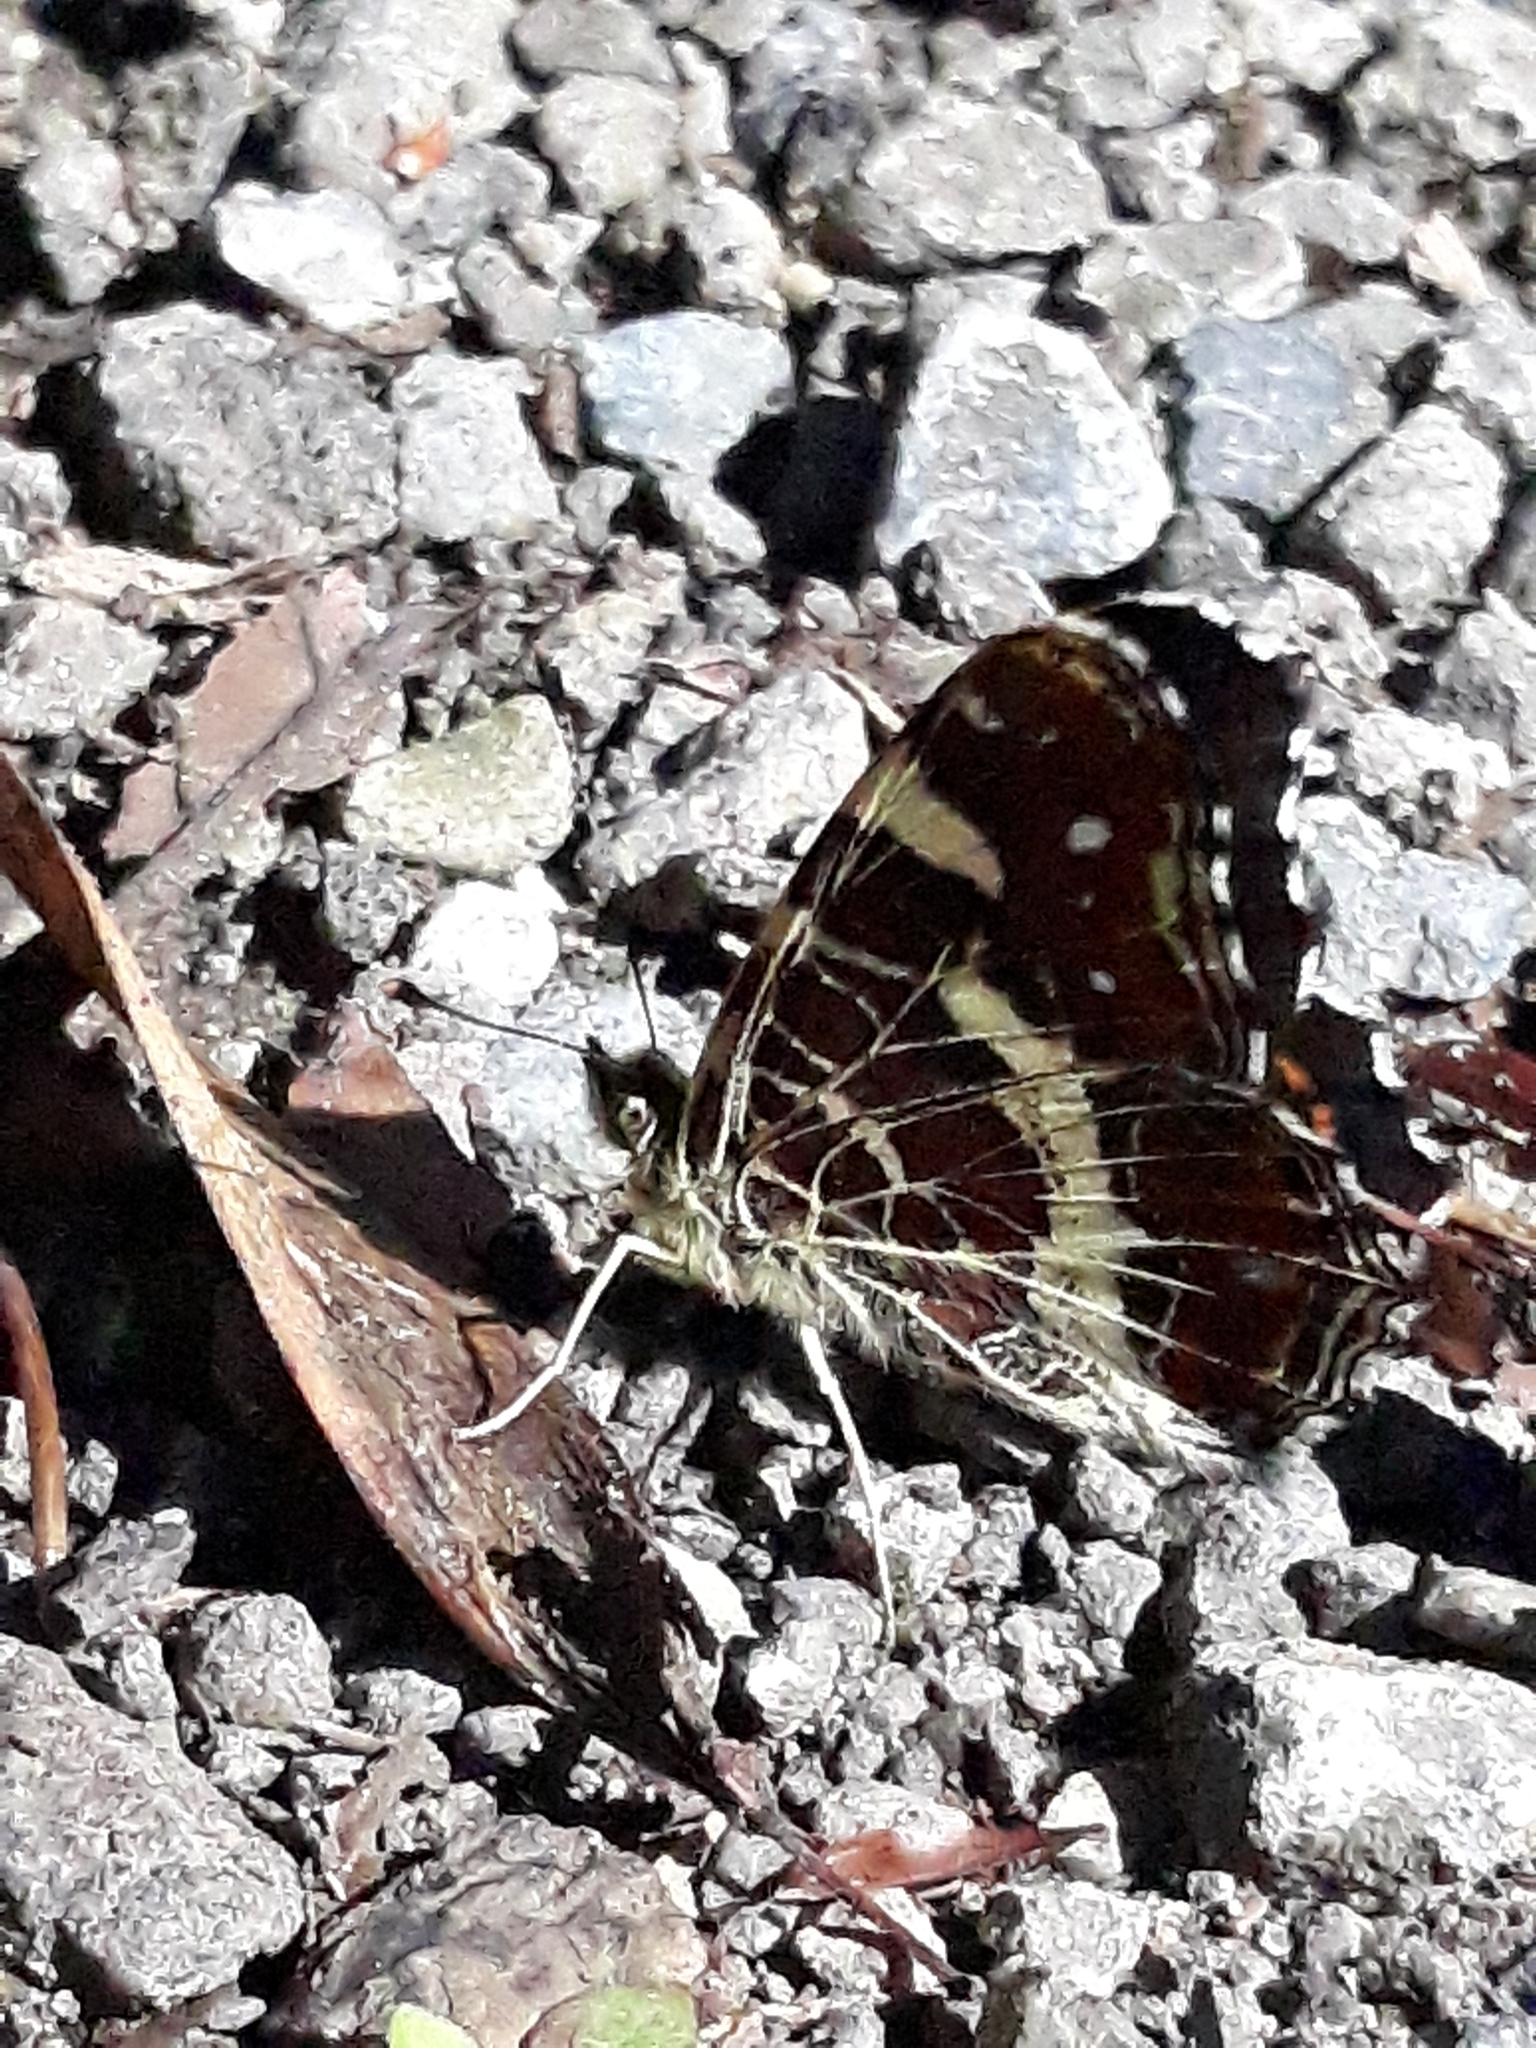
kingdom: Animalia
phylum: Arthropoda
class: Insecta
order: Lepidoptera
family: Nymphalidae
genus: Araschnia
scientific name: Araschnia levana
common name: Map butterfly
